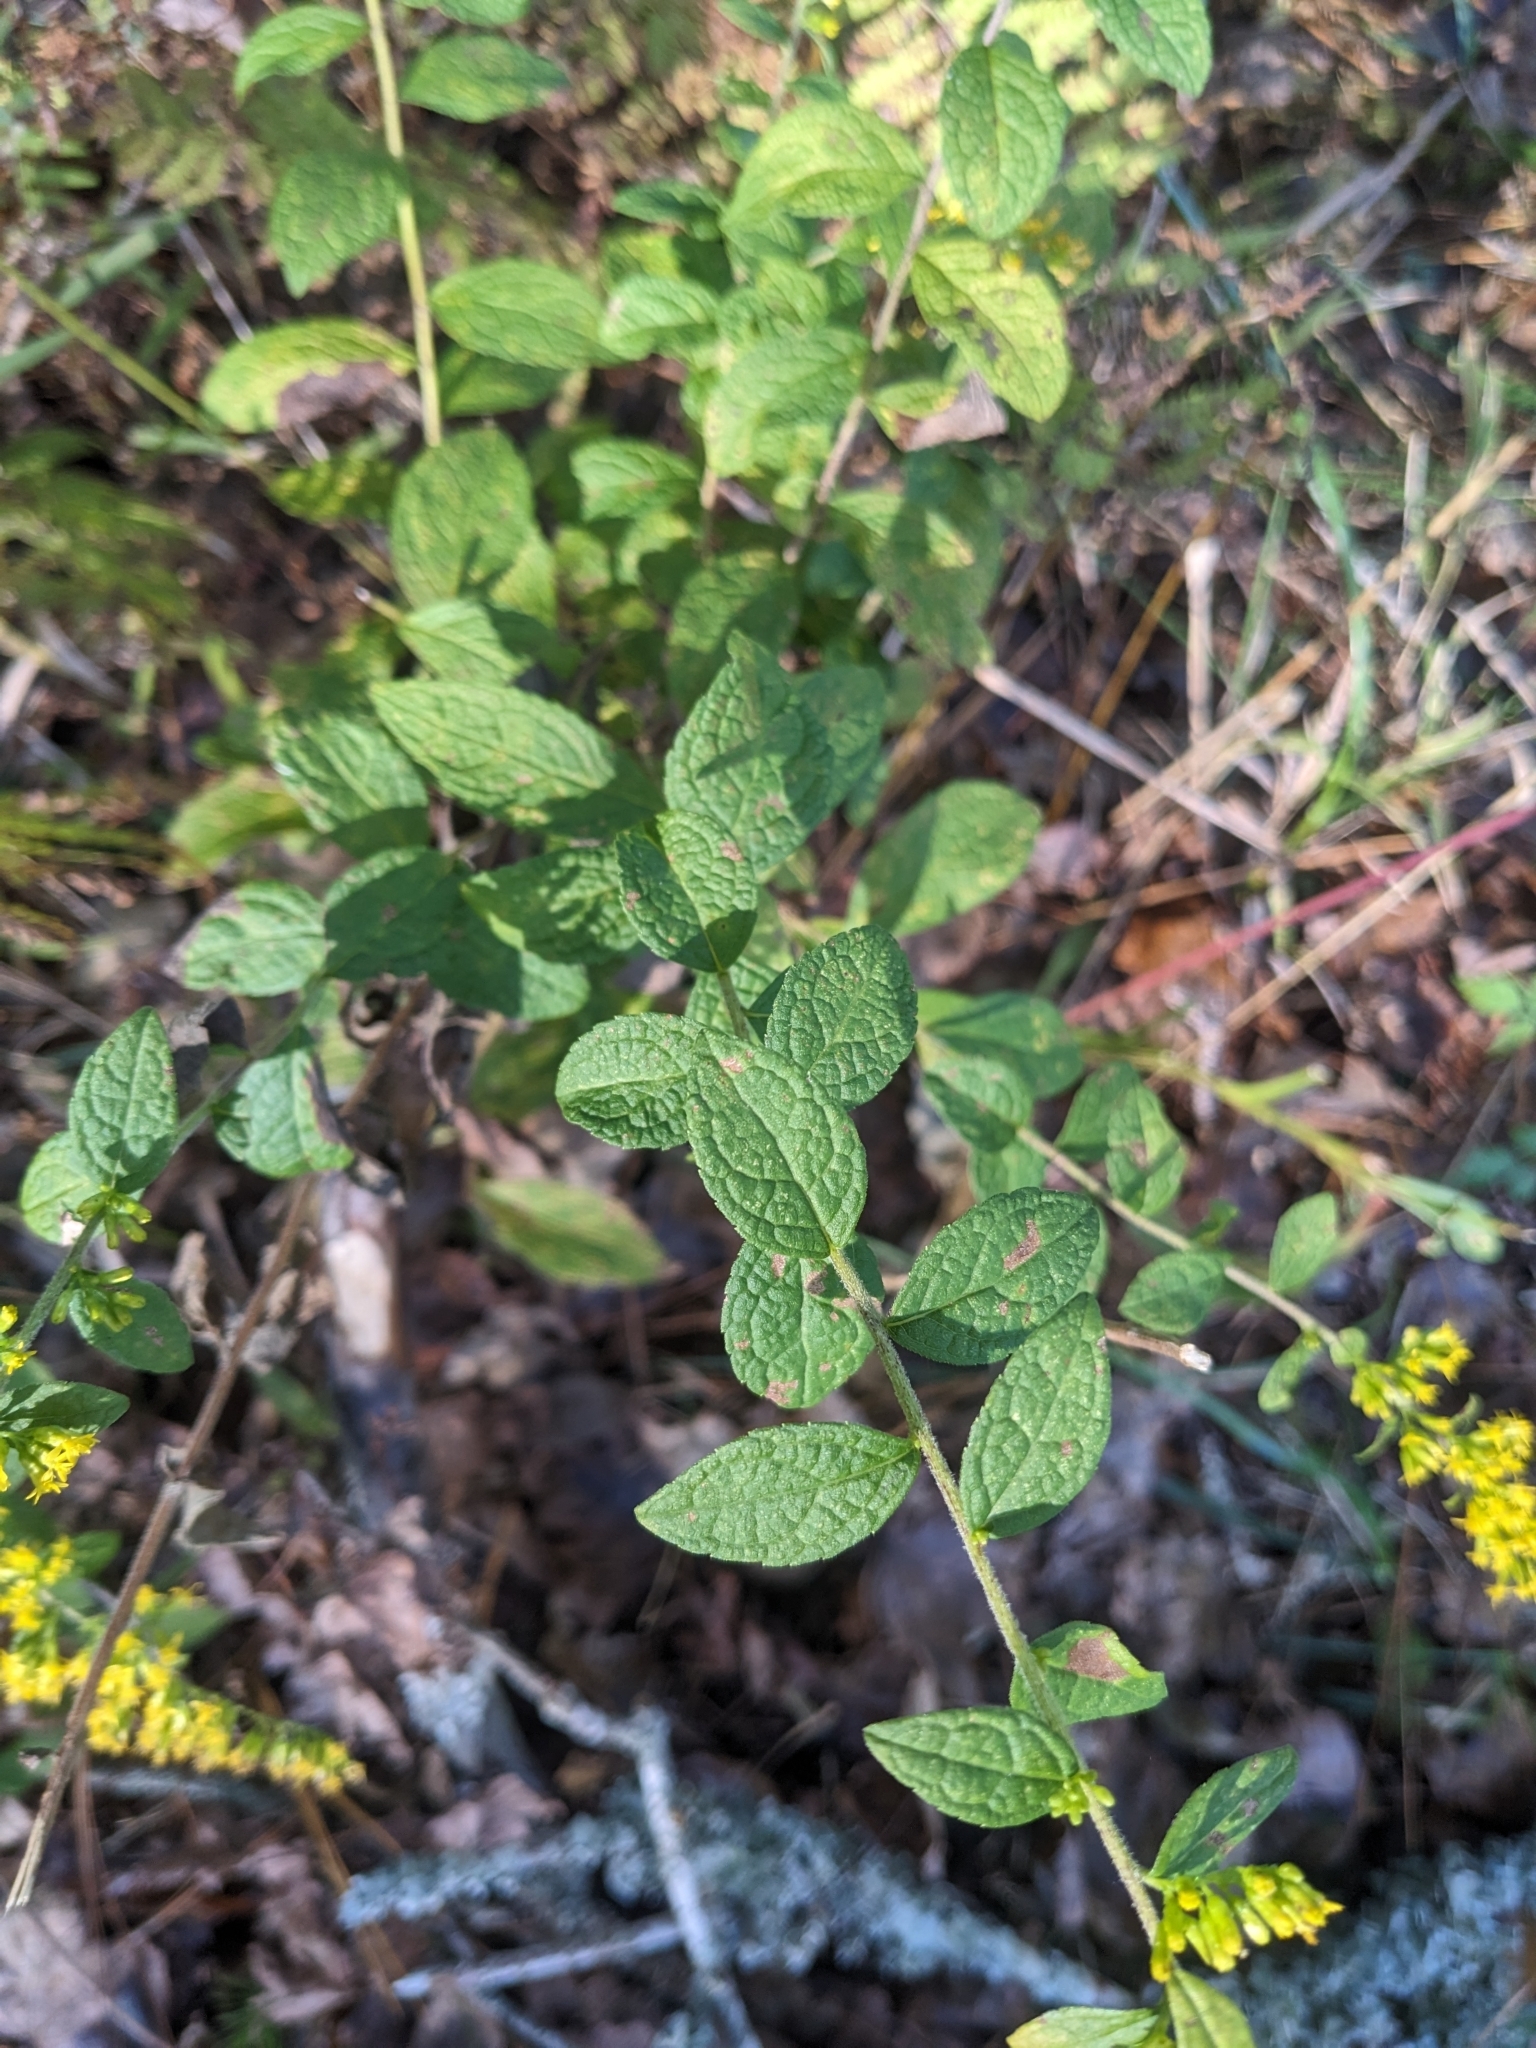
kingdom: Plantae
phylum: Tracheophyta
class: Magnoliopsida
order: Asterales
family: Asteraceae
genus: Solidago
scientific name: Solidago rugosa
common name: Rough-stemmed goldenrod
